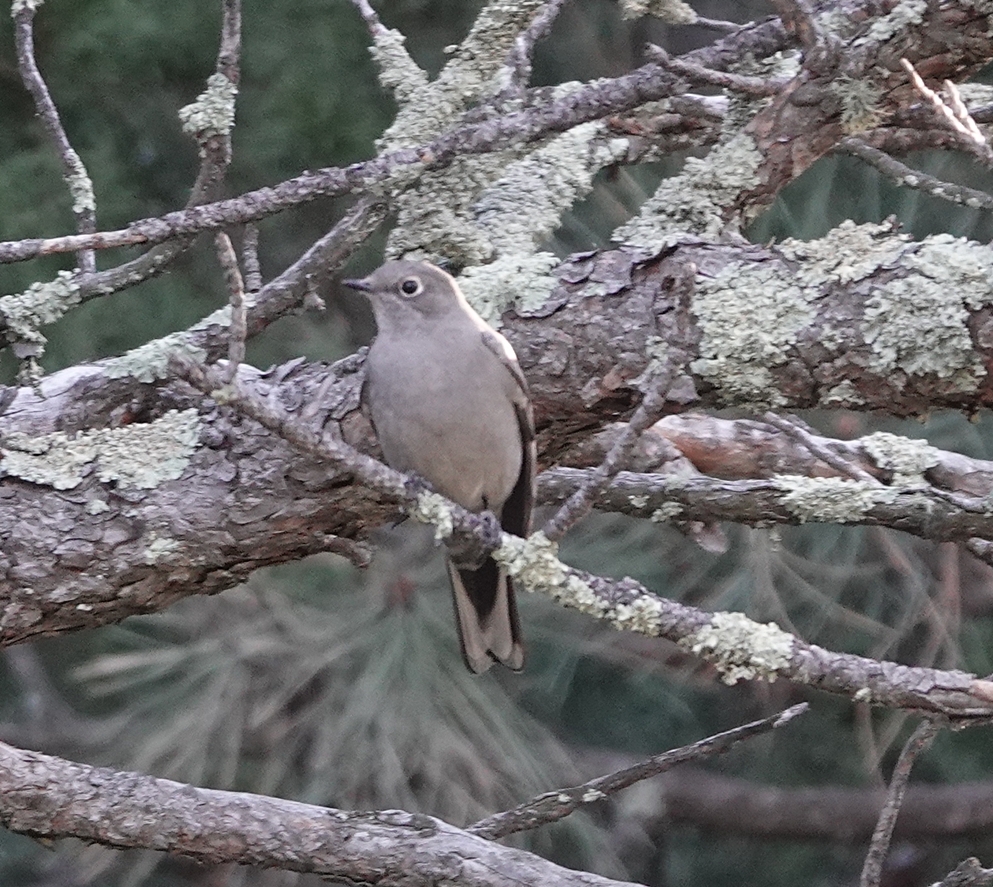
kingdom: Animalia
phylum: Chordata
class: Aves
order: Passeriformes
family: Turdidae
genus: Myadestes
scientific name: Myadestes townsendi
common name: Townsend's solitaire
